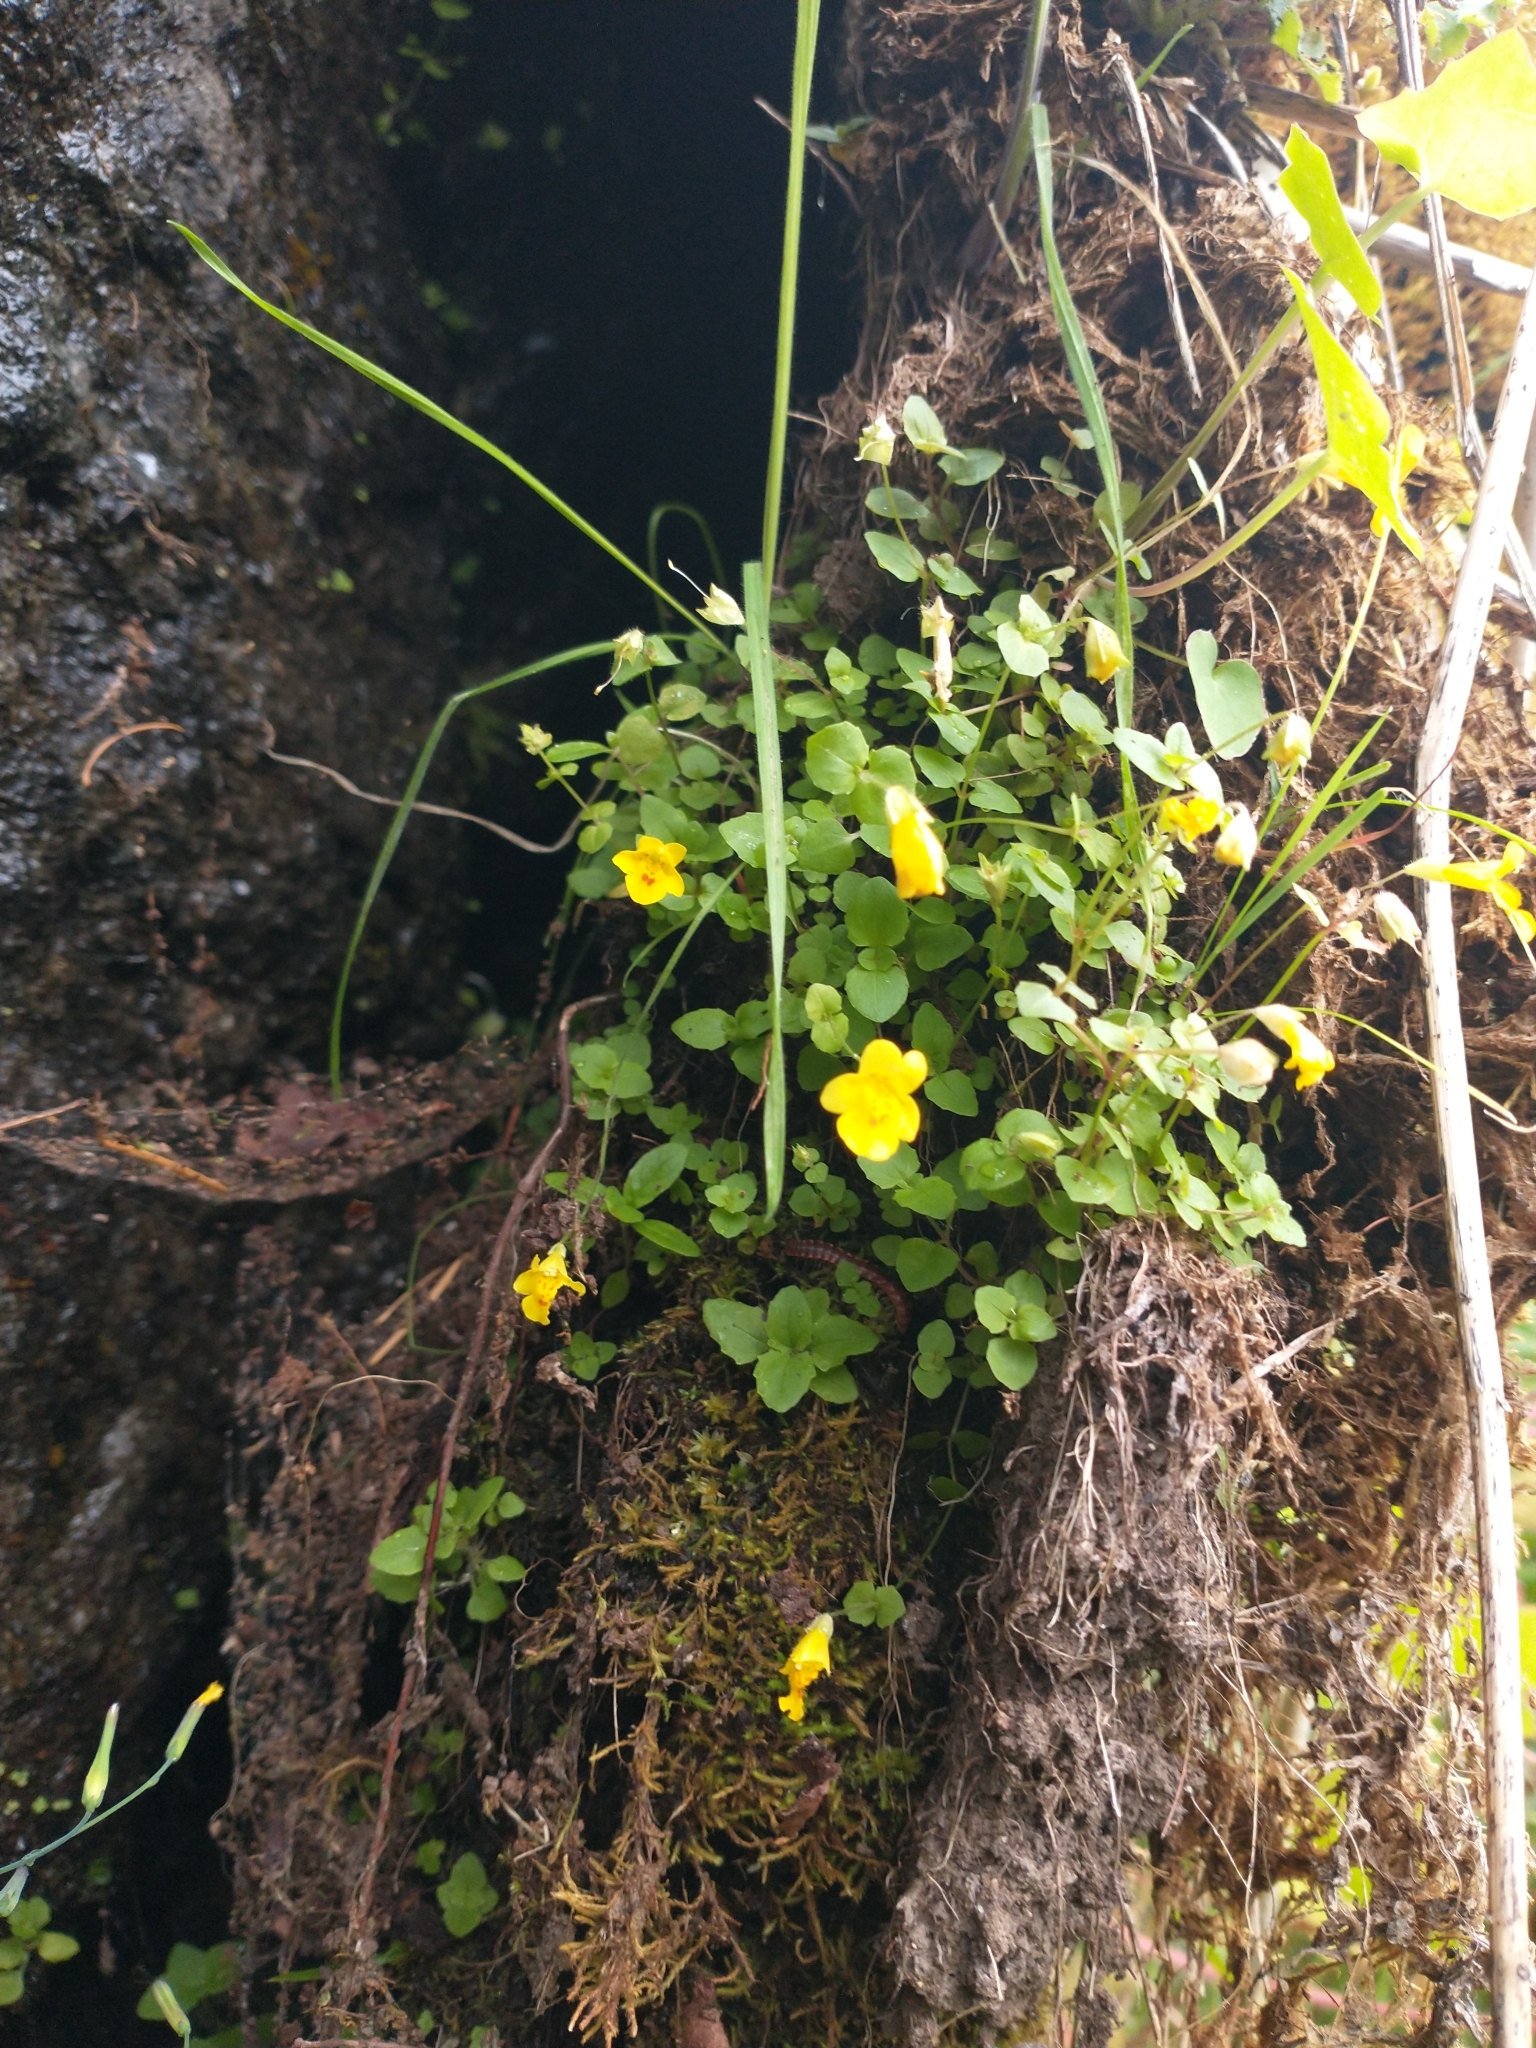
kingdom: Plantae
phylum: Tracheophyta
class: Magnoliopsida
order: Lamiales
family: Phrymaceae
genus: Erythranthe
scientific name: Erythranthe microphylla
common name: Bentham's monkeyflower
